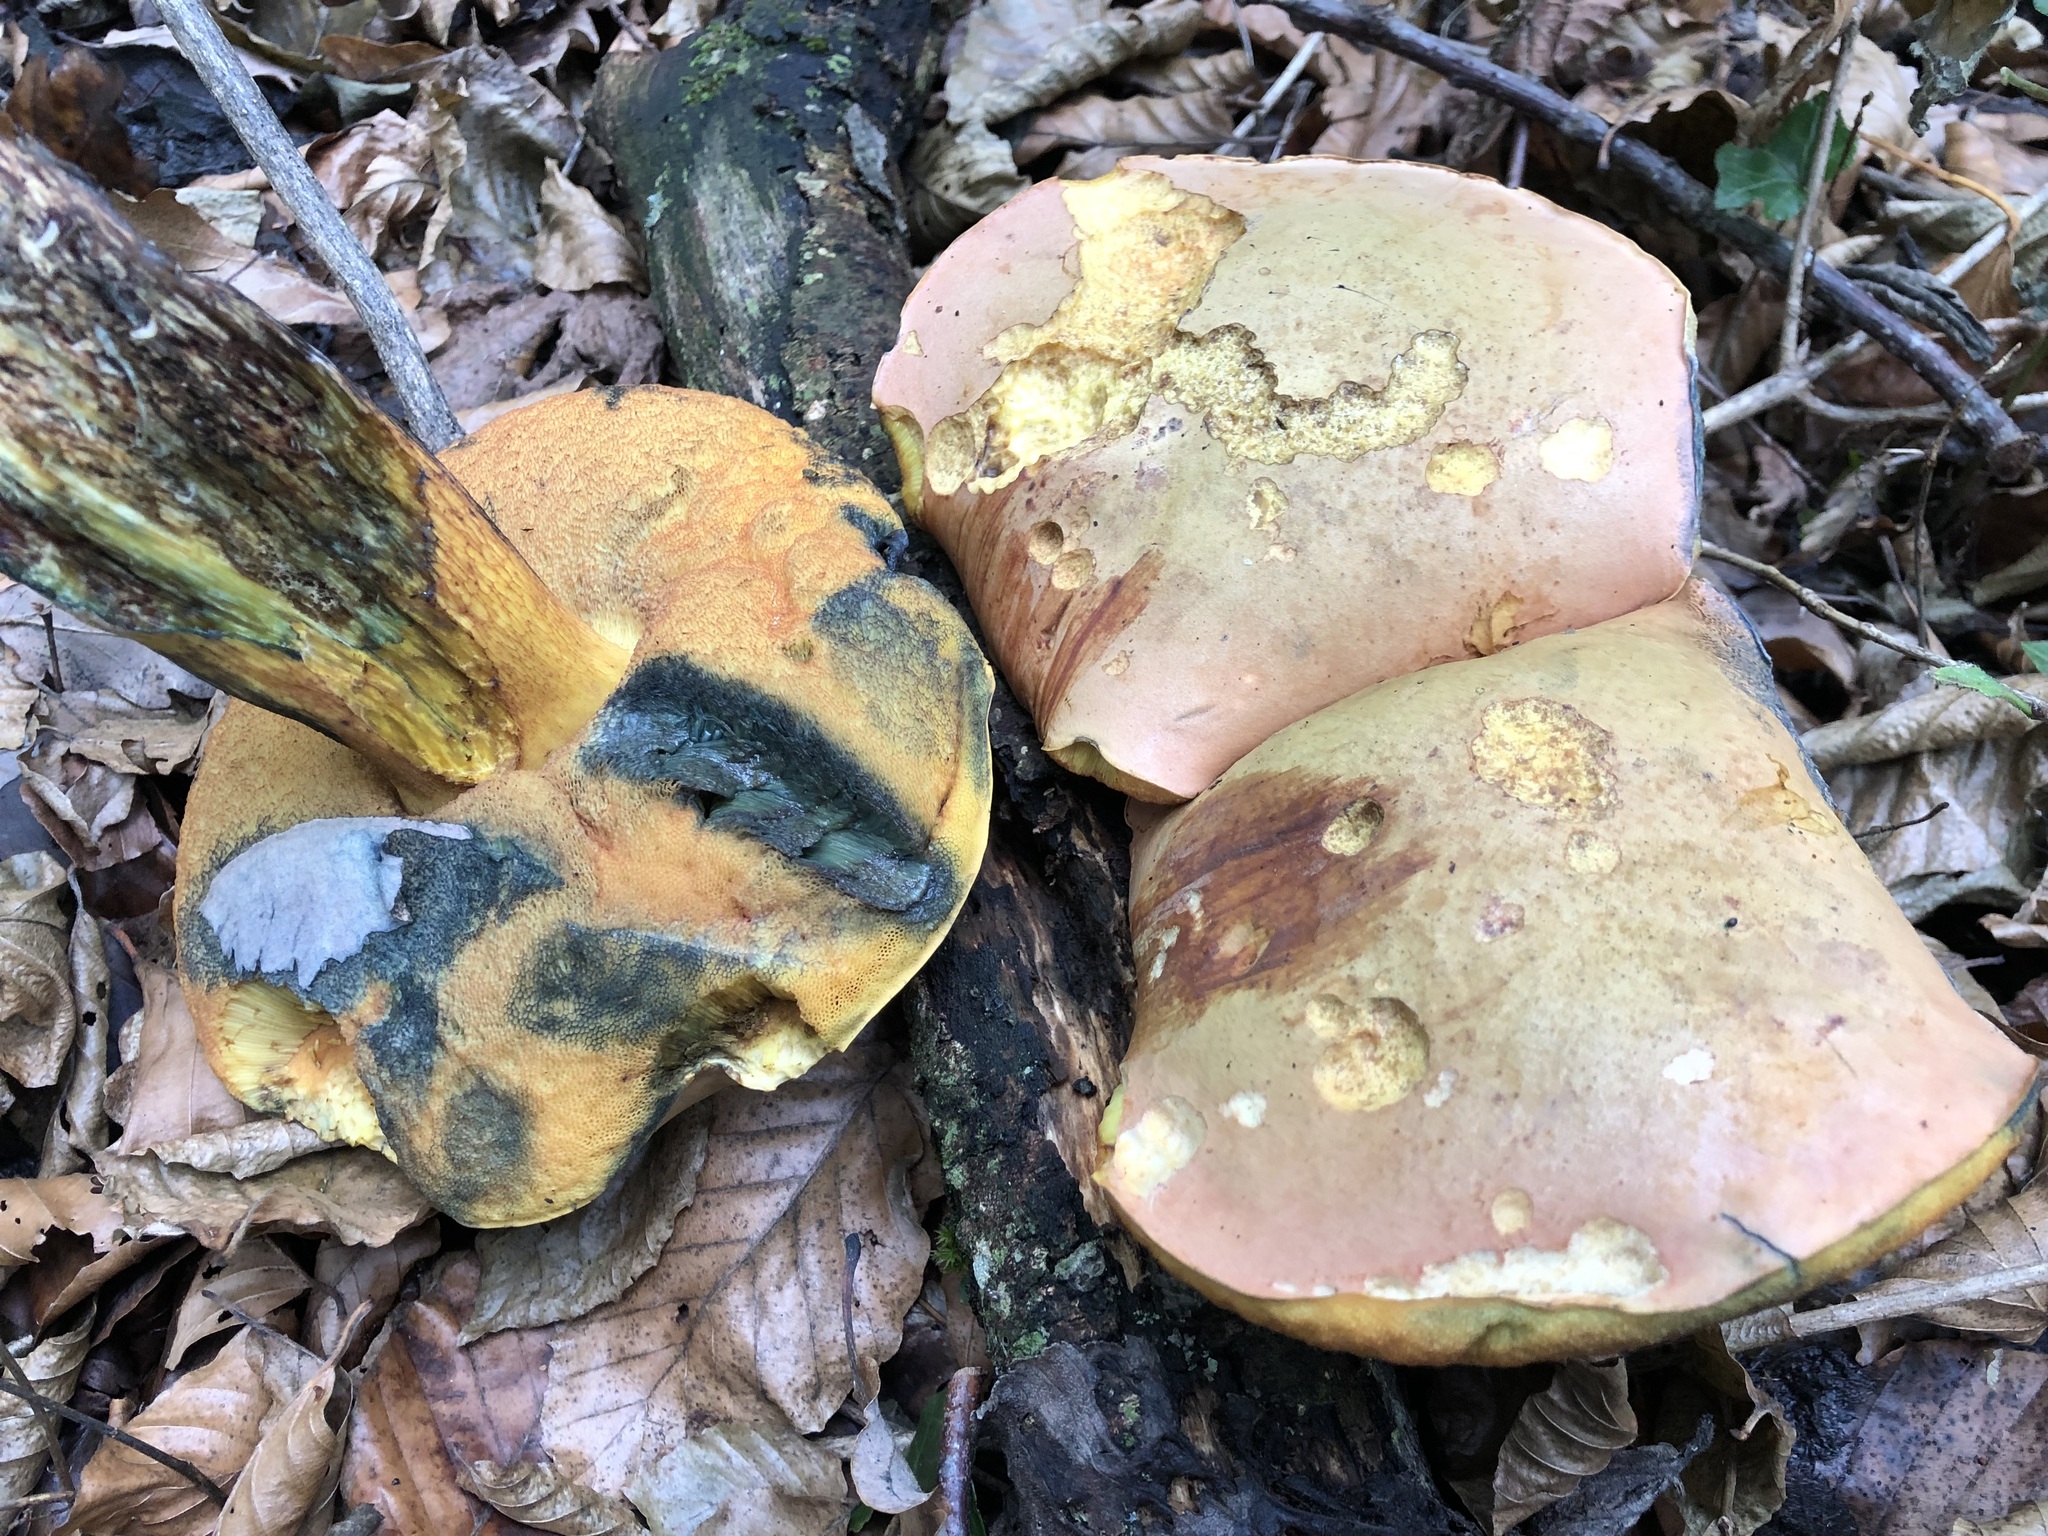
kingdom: Fungi
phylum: Basidiomycota
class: Agaricomycetes
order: Boletales
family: Boletaceae
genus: Suillellus
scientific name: Suillellus luridus
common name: Lurid bolete
